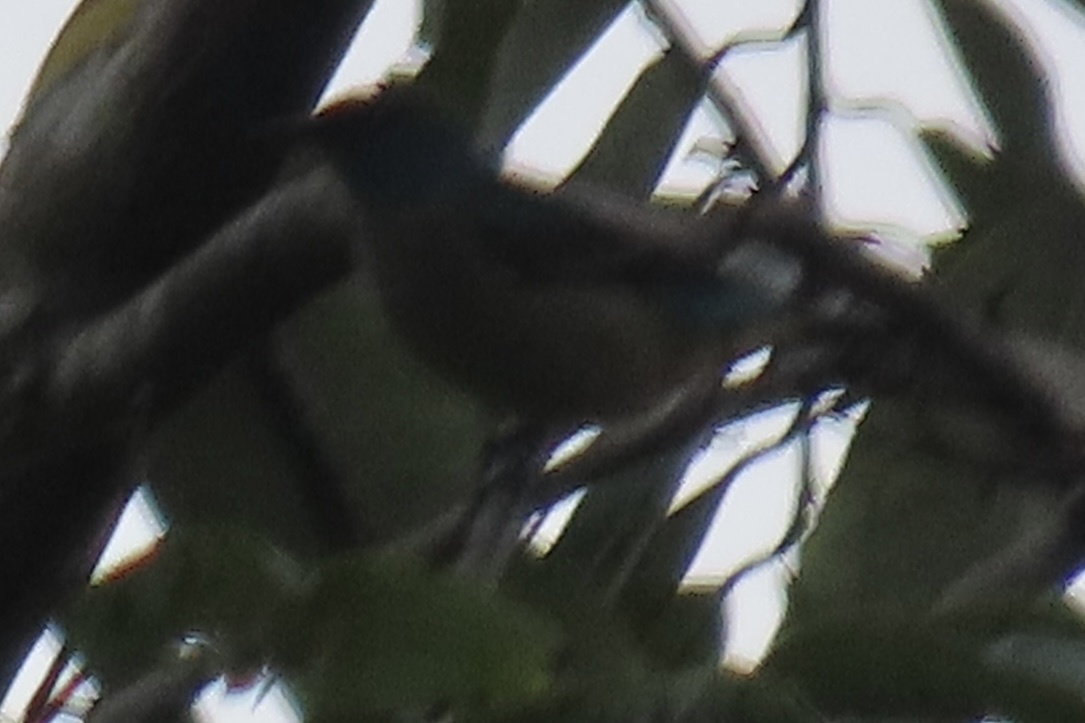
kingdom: Animalia
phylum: Chordata
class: Aves
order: Passeriformes
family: Thraupidae
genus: Dacnis
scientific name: Dacnis venusta
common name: Scarlet-thighed dacnis
